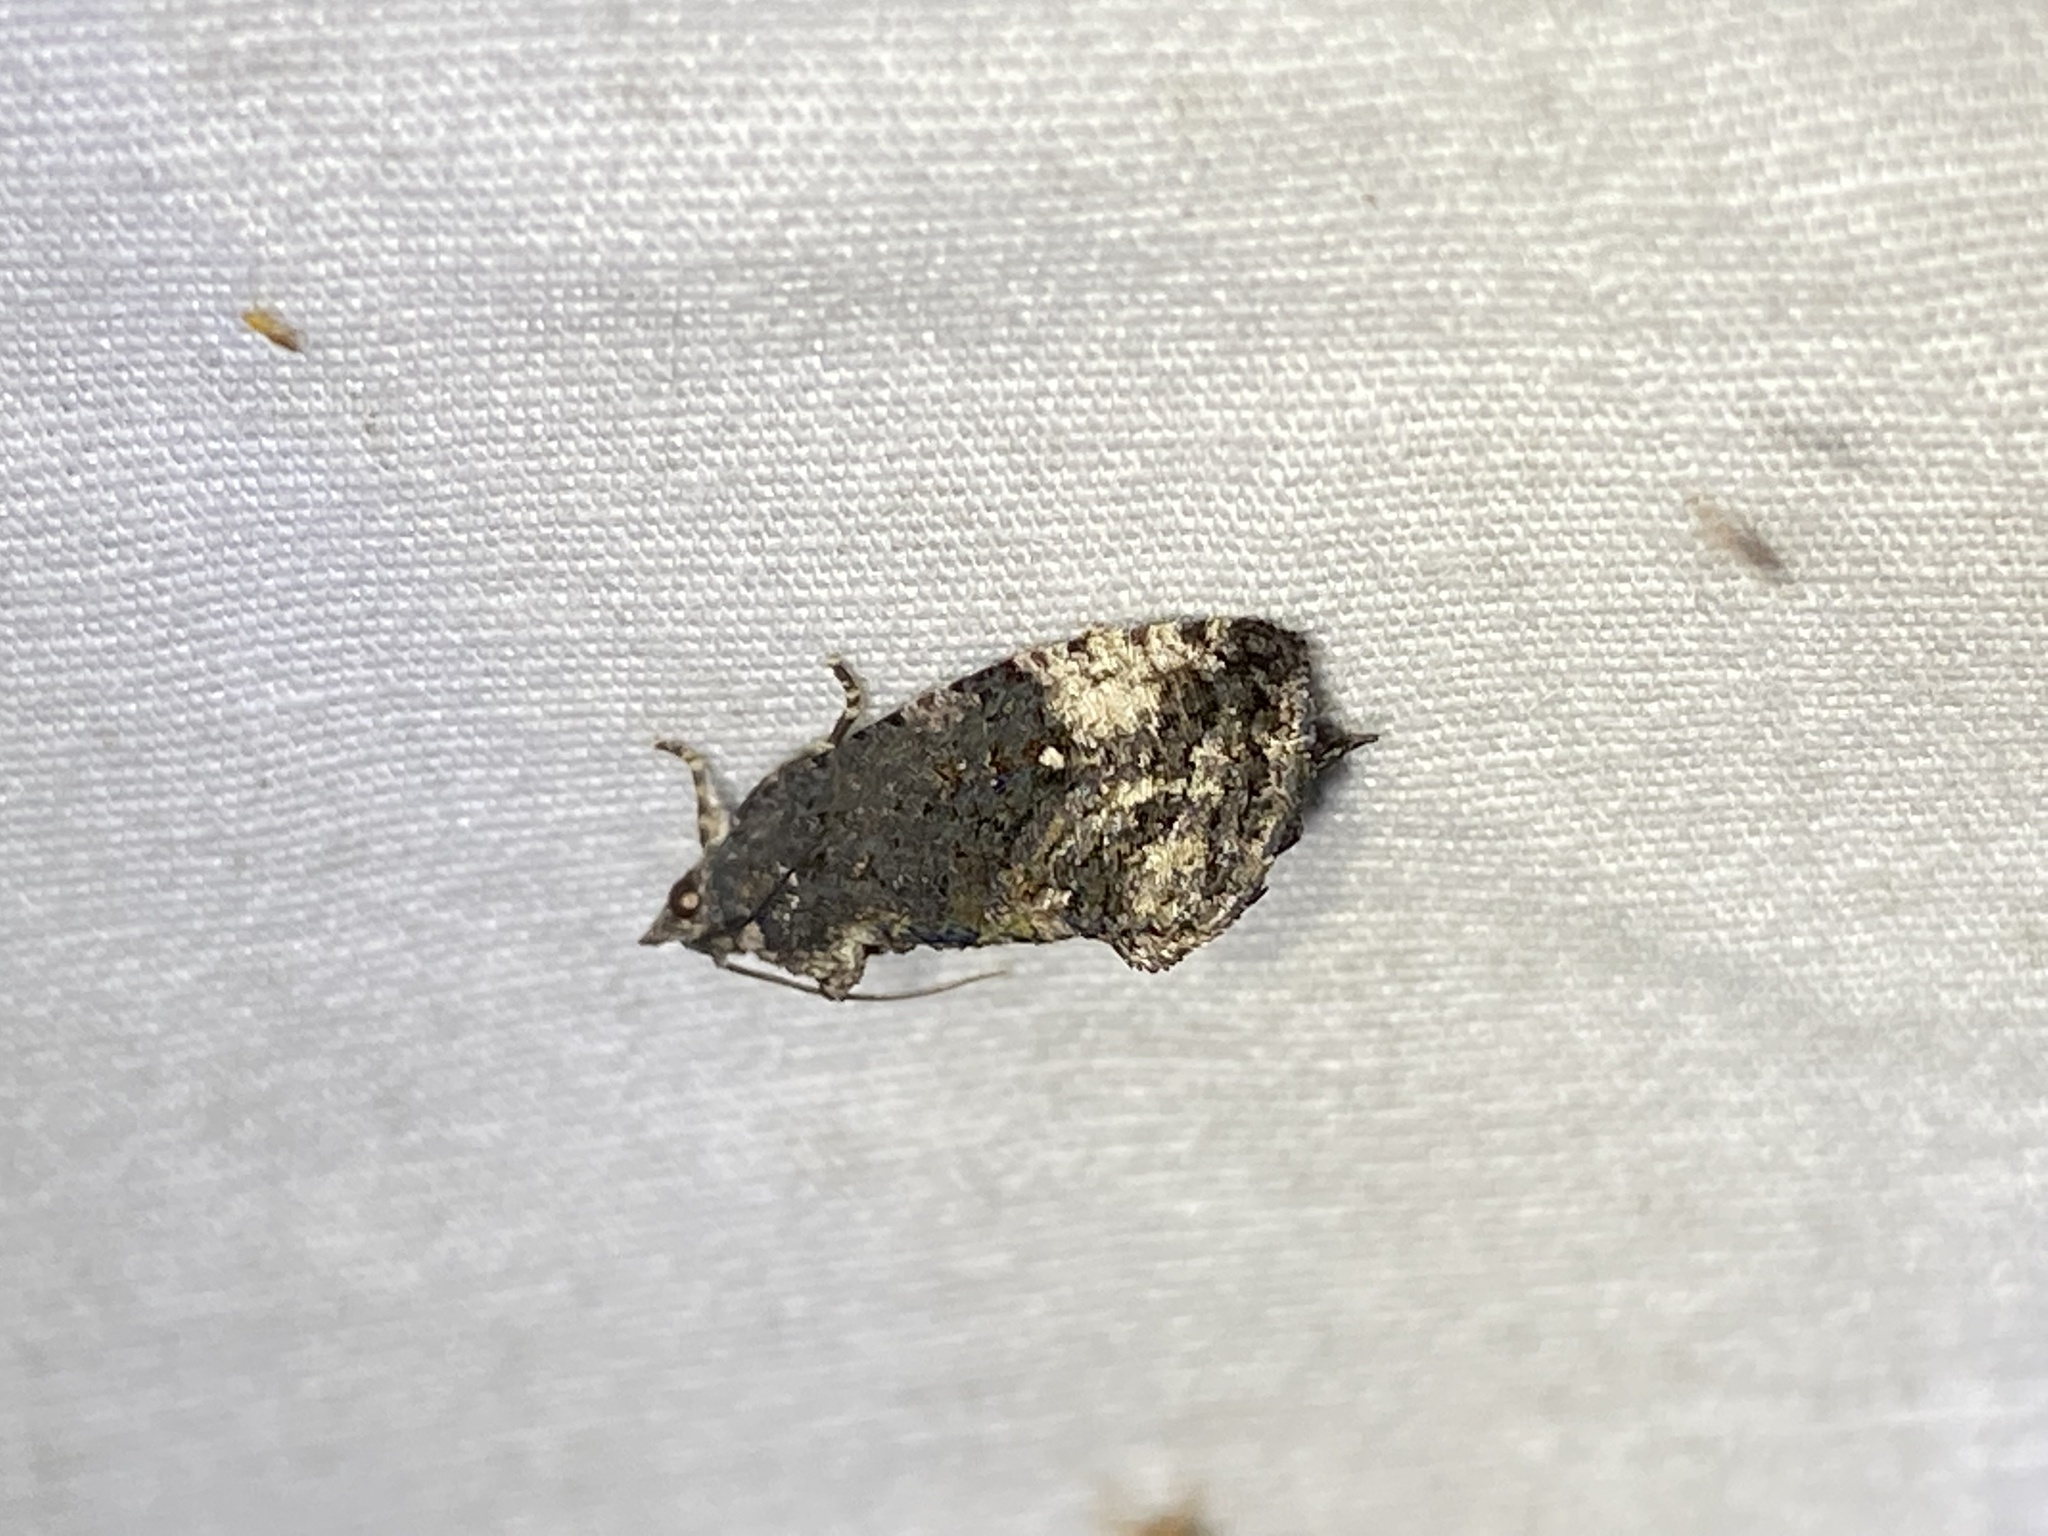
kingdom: Animalia
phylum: Arthropoda
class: Insecta
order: Lepidoptera
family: Tortricidae
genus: Gymnandrosoma
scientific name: Gymnandrosoma punctidiscanum
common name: Dotted ecdytolopha moth
